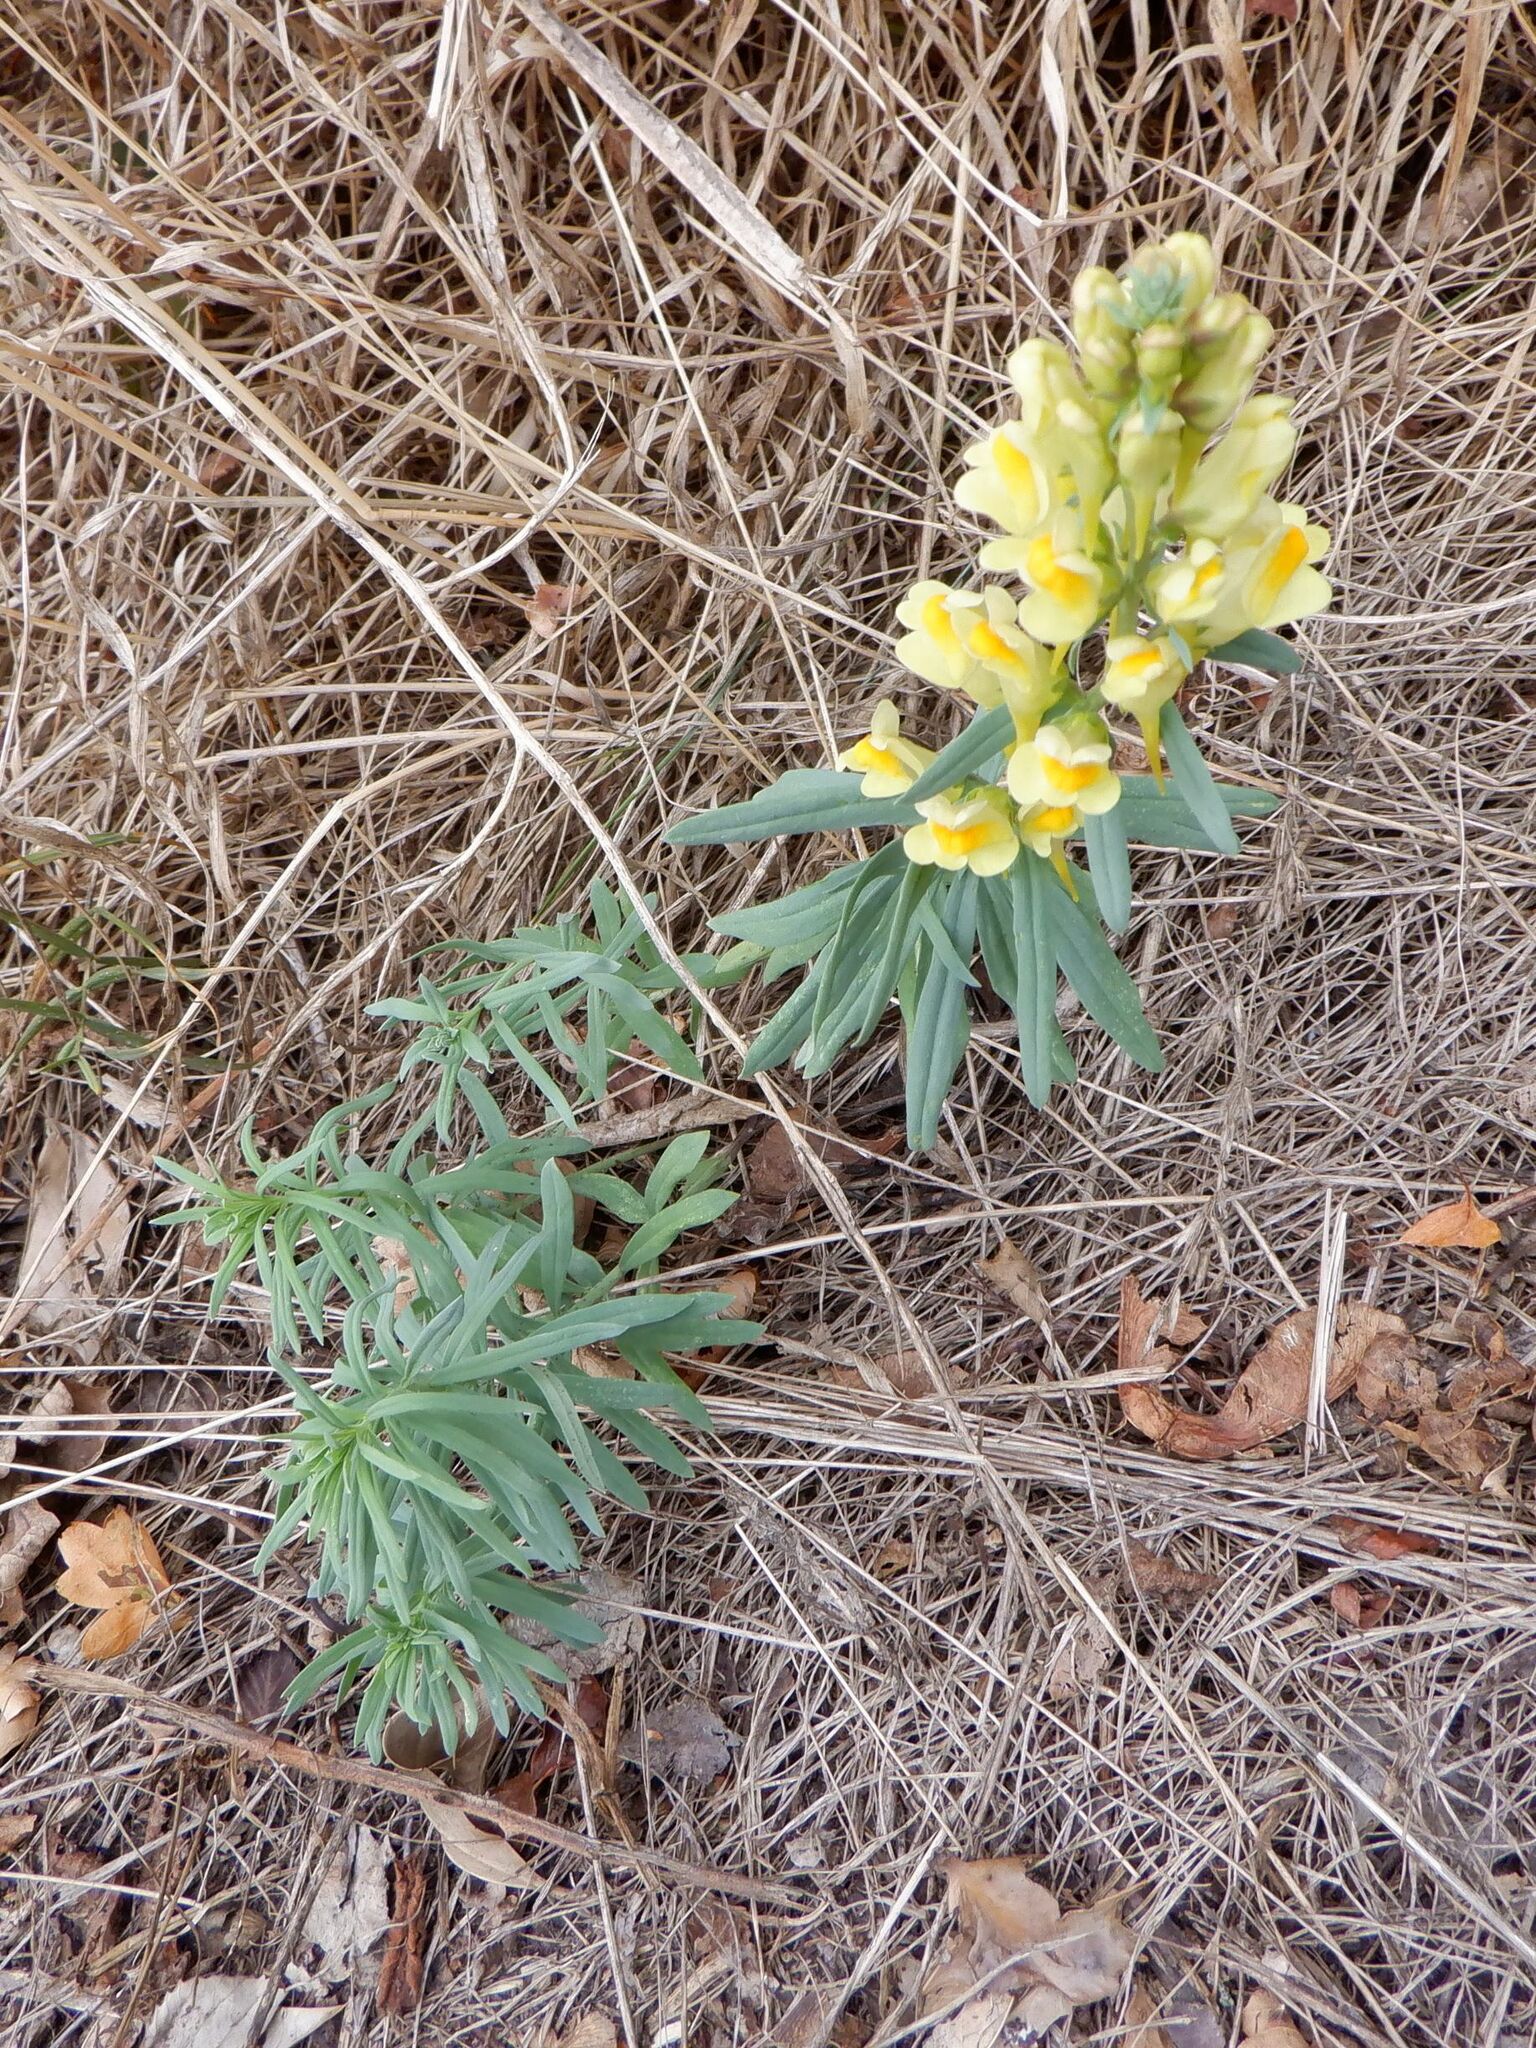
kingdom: Plantae
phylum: Tracheophyta
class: Magnoliopsida
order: Lamiales
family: Plantaginaceae
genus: Linaria
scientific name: Linaria vulgaris
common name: Butter and eggs
